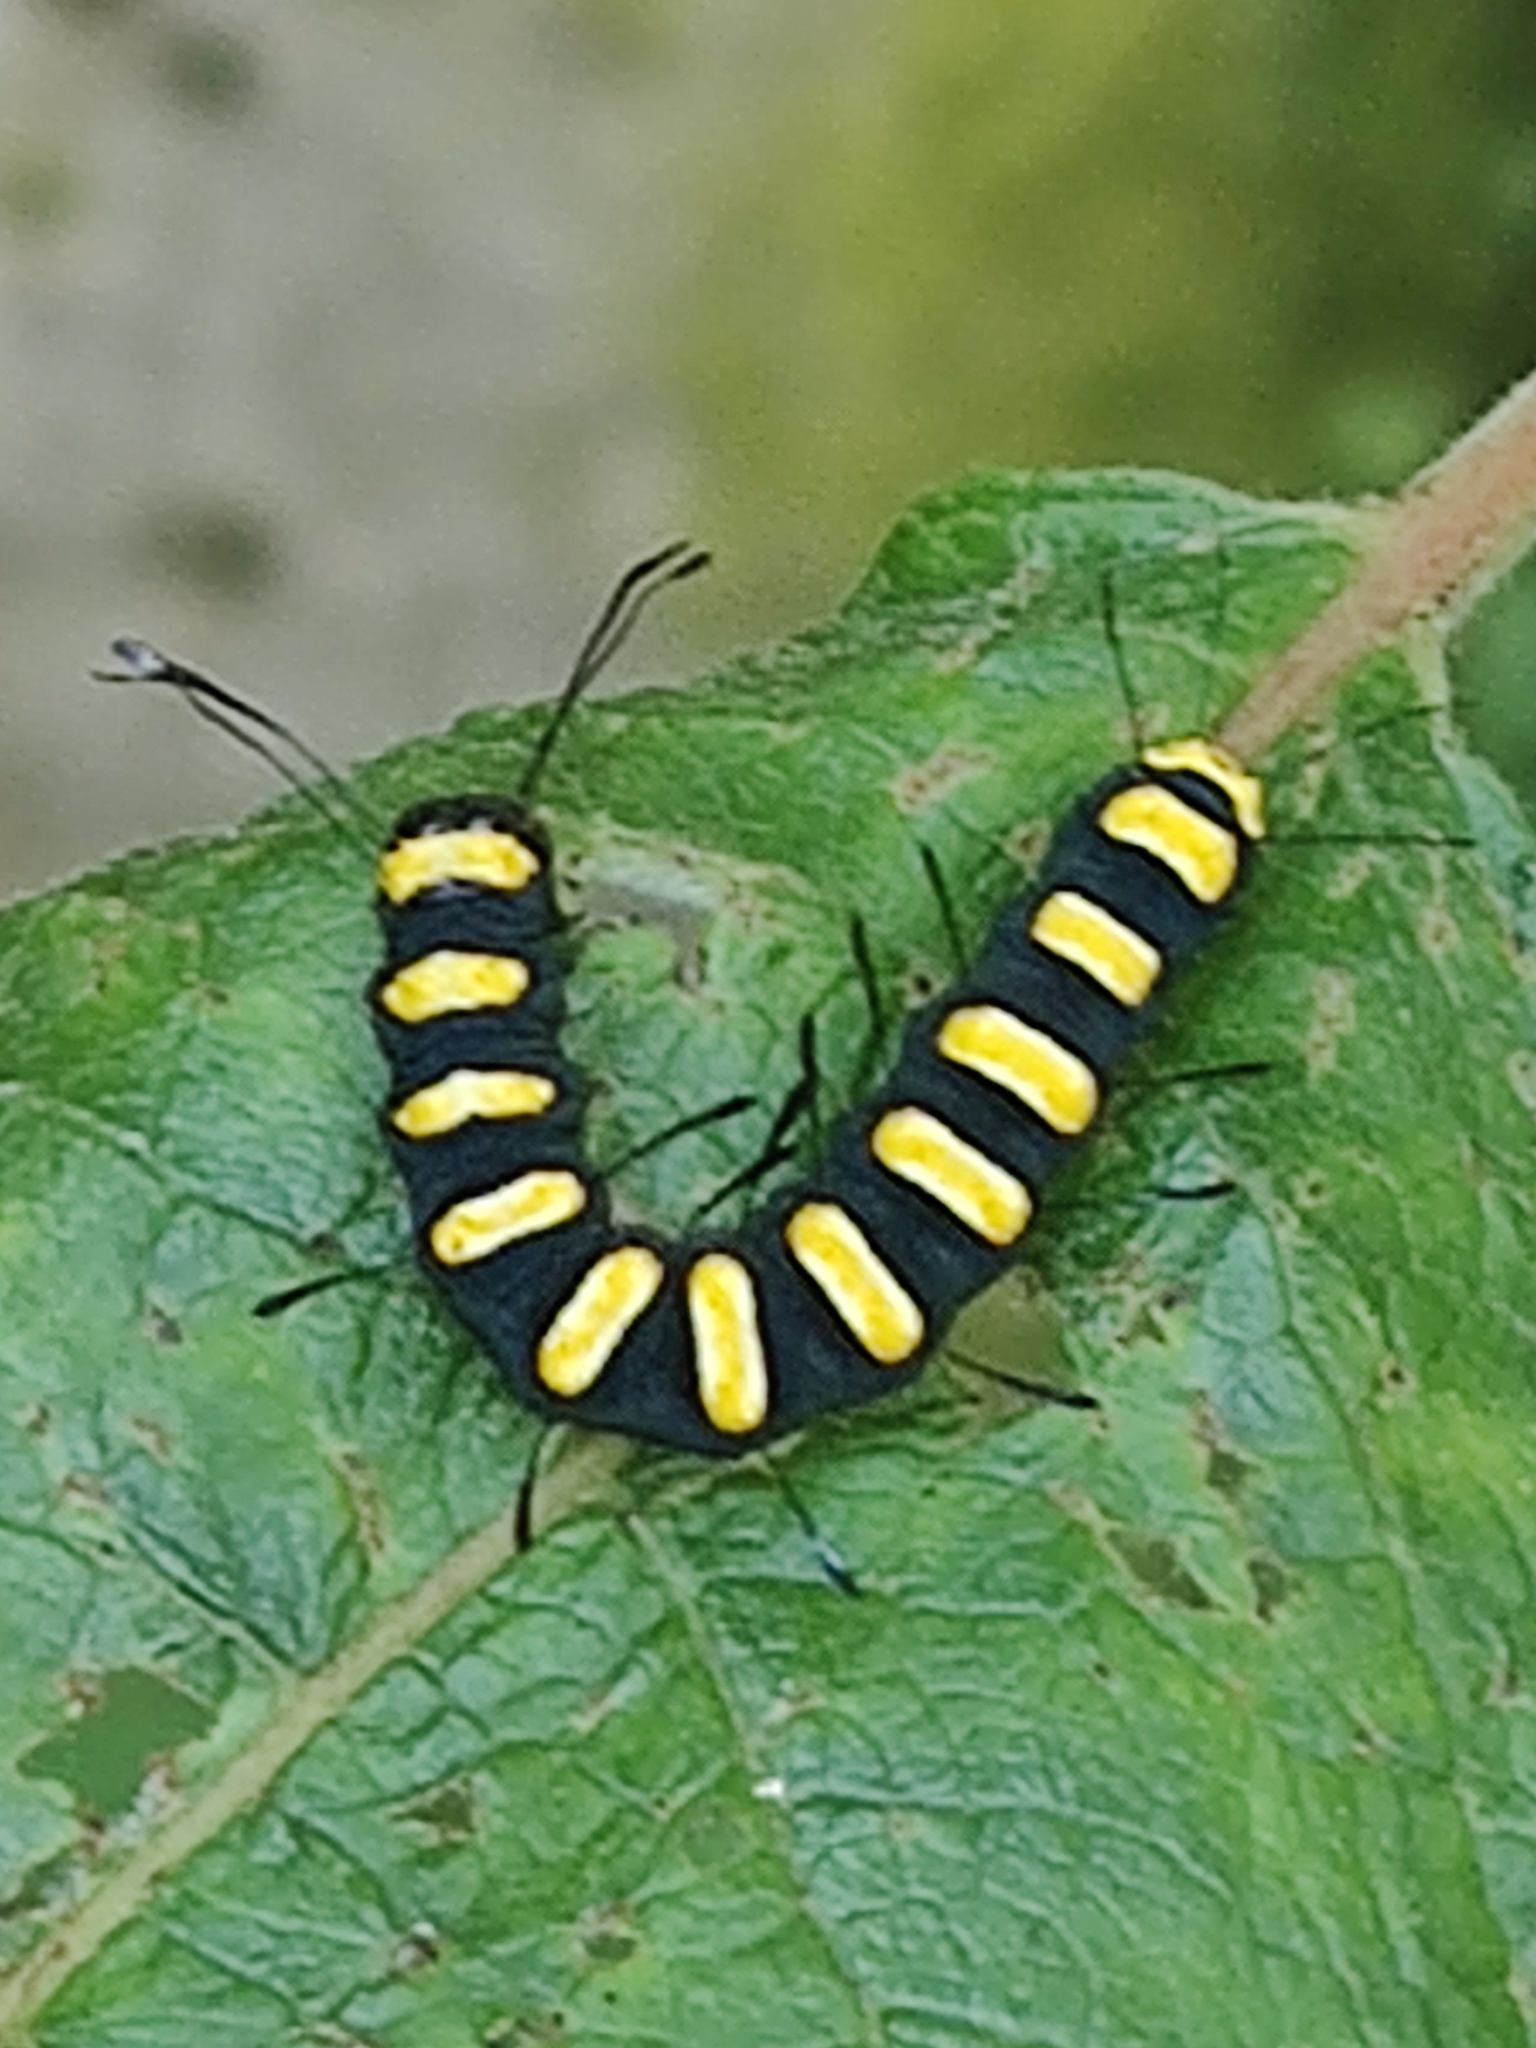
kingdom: Animalia
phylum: Arthropoda
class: Insecta
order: Lepidoptera
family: Noctuidae
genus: Acronicta
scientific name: Acronicta alni
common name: Alder moth
